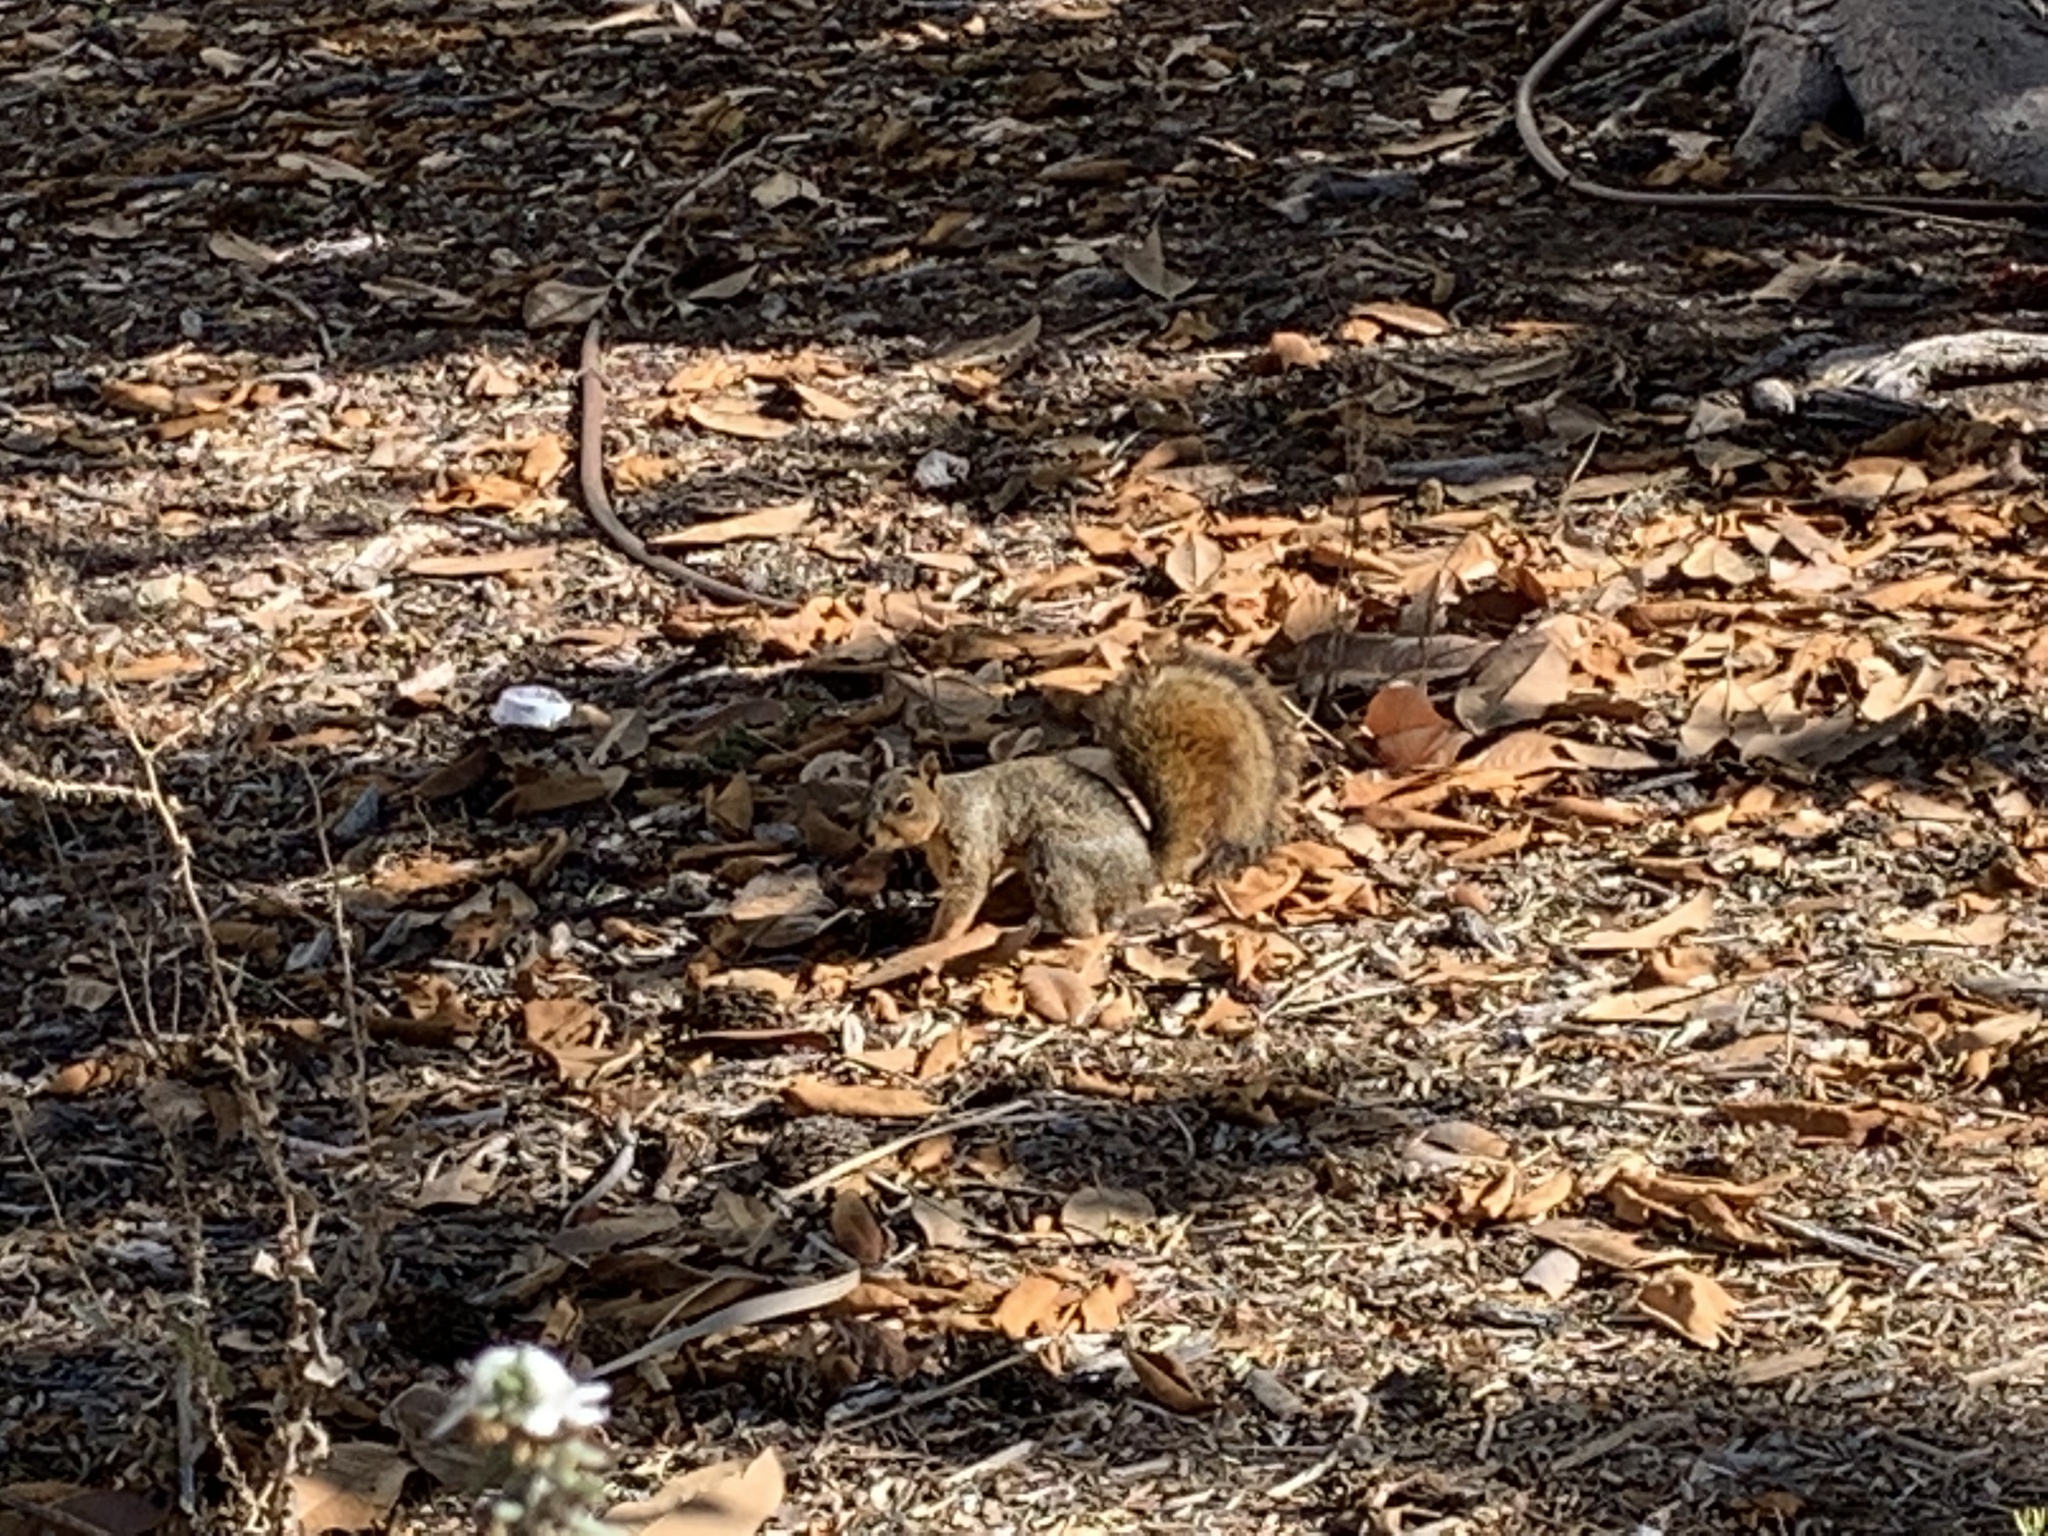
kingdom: Animalia
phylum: Chordata
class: Mammalia
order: Rodentia
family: Sciuridae
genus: Sciurus
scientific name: Sciurus niger
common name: Fox squirrel
